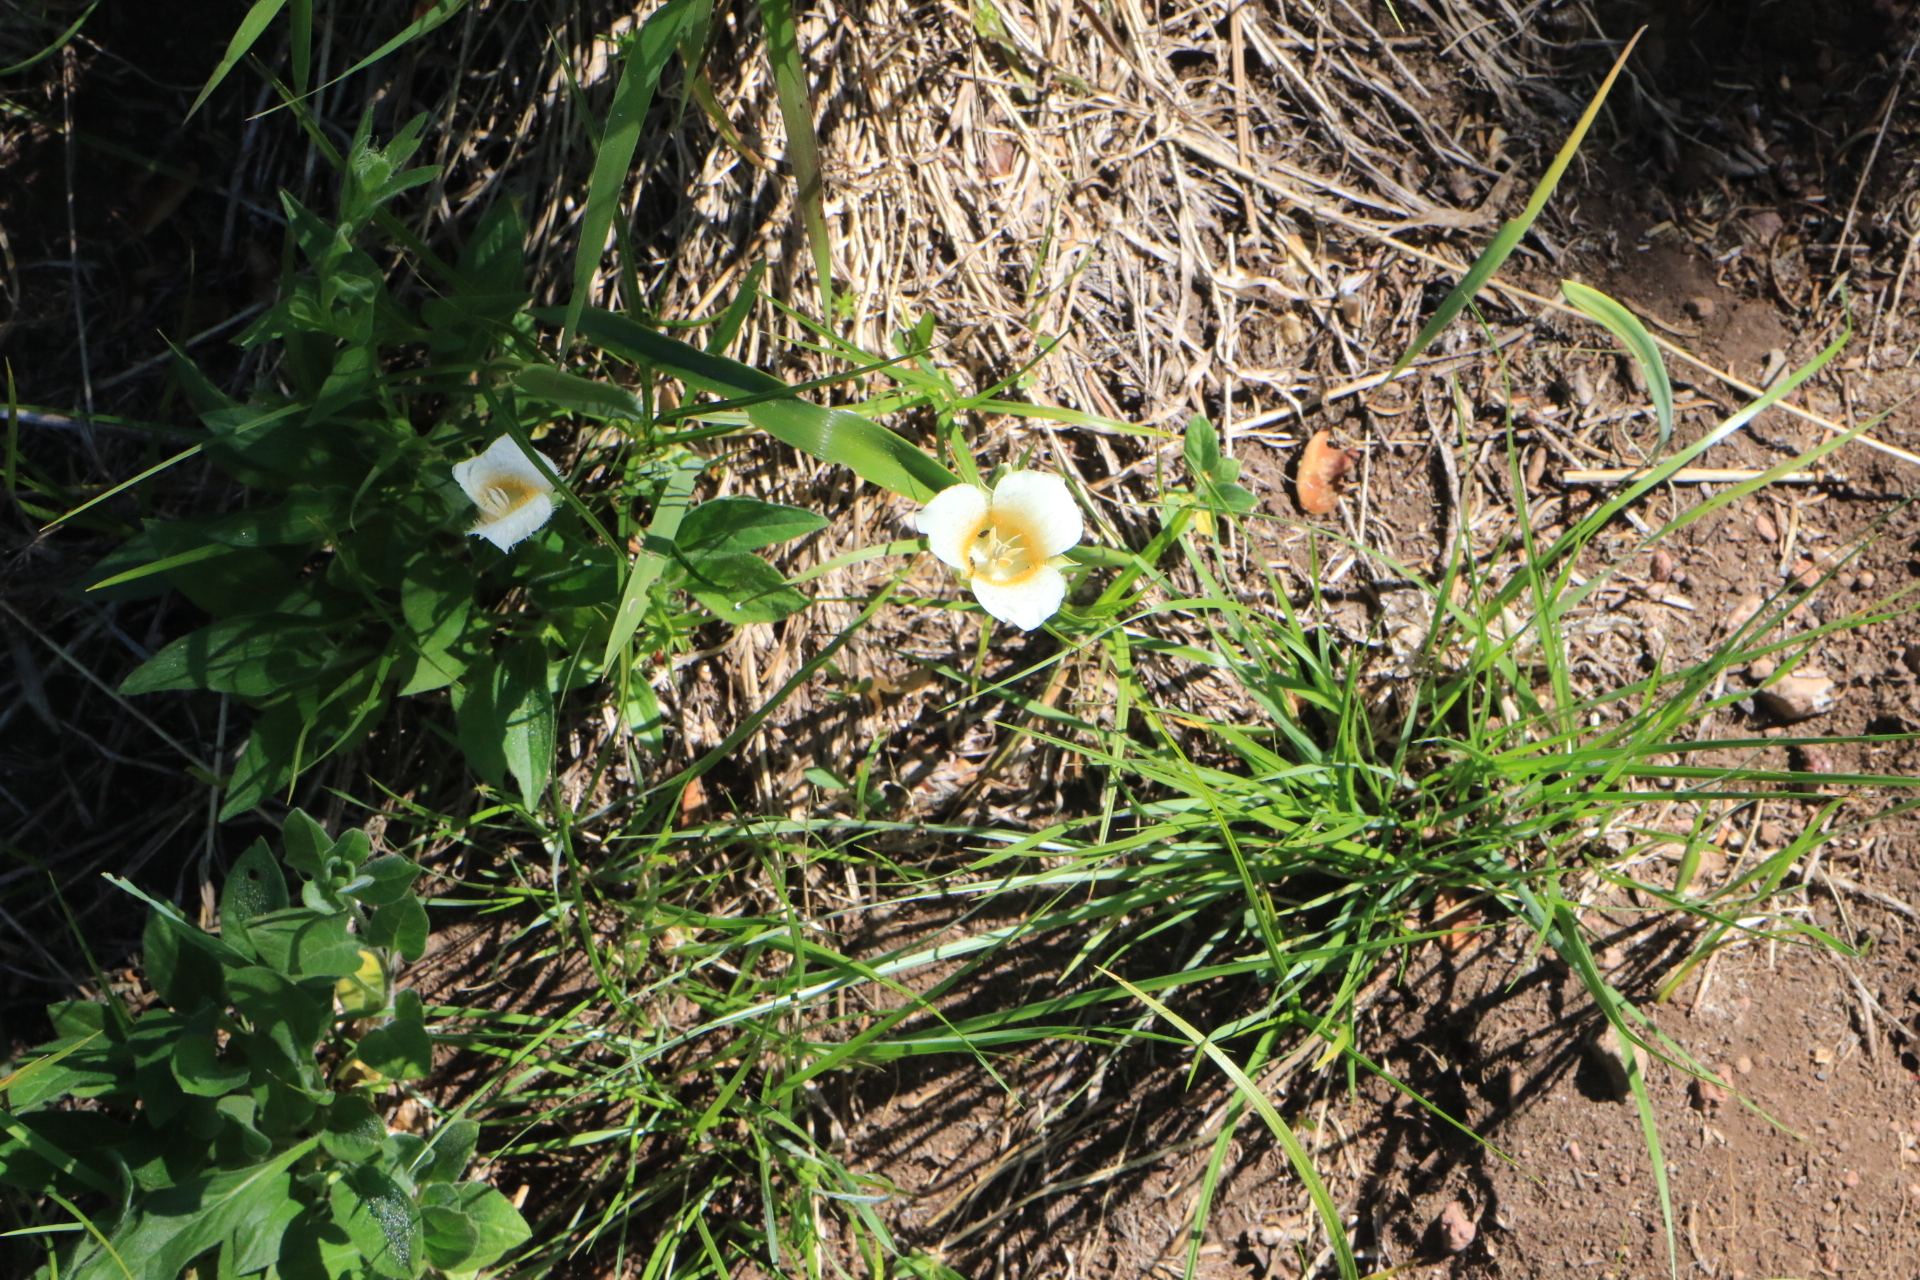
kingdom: Plantae
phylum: Tracheophyta
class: Liliopsida
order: Liliales
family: Liliaceae
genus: Calochortus
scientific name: Calochortus subalpinus
